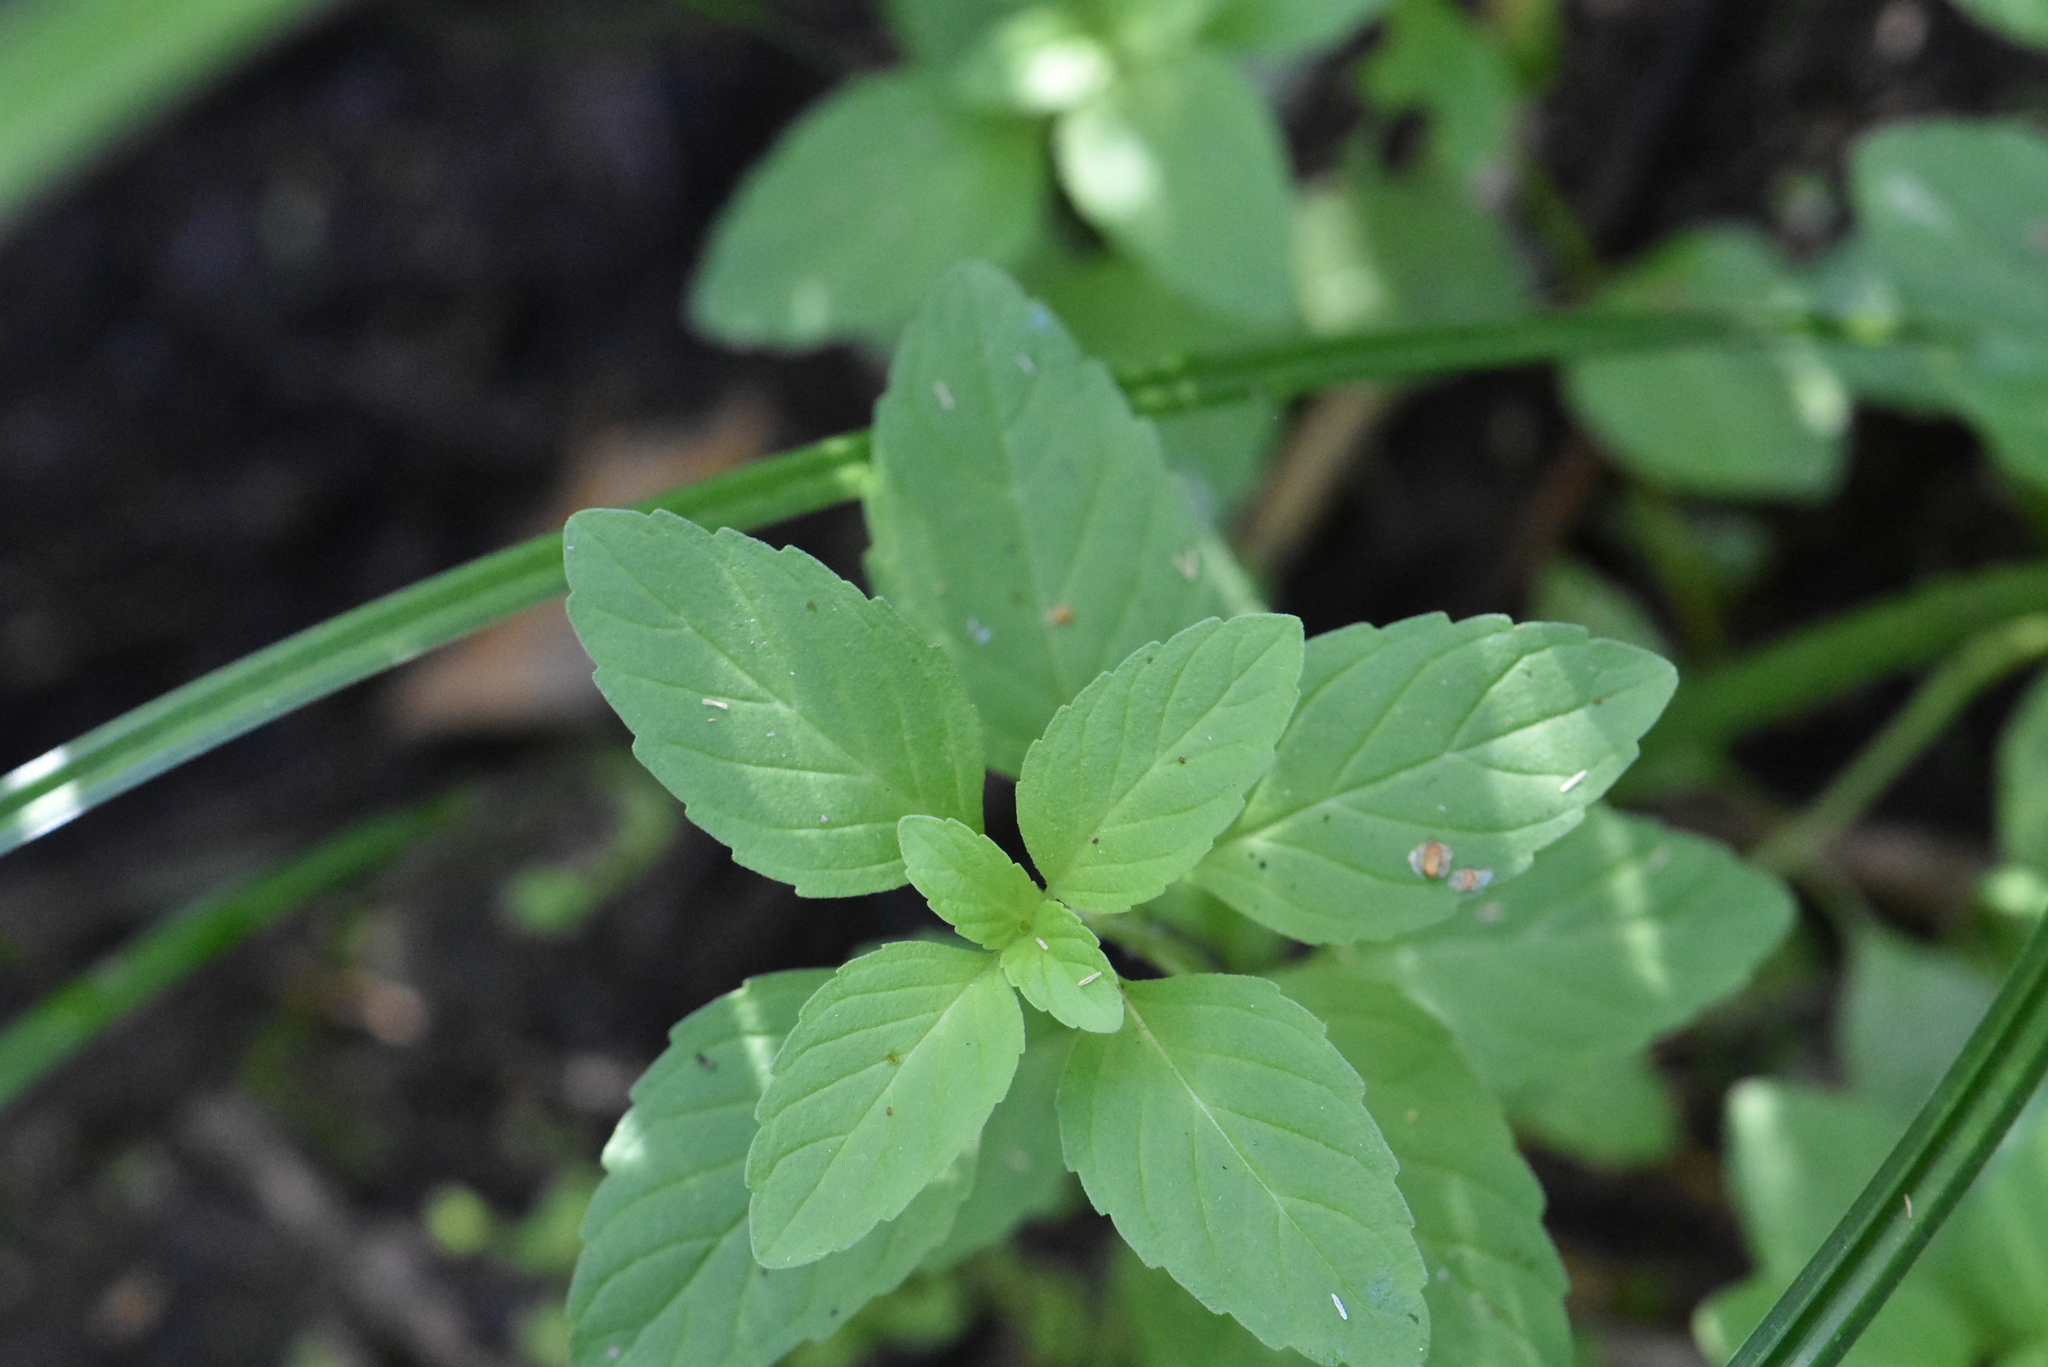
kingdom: Plantae
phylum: Tracheophyta
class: Magnoliopsida
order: Lamiales
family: Lamiaceae
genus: Mentha
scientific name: Mentha arvensis
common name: Corn mint
